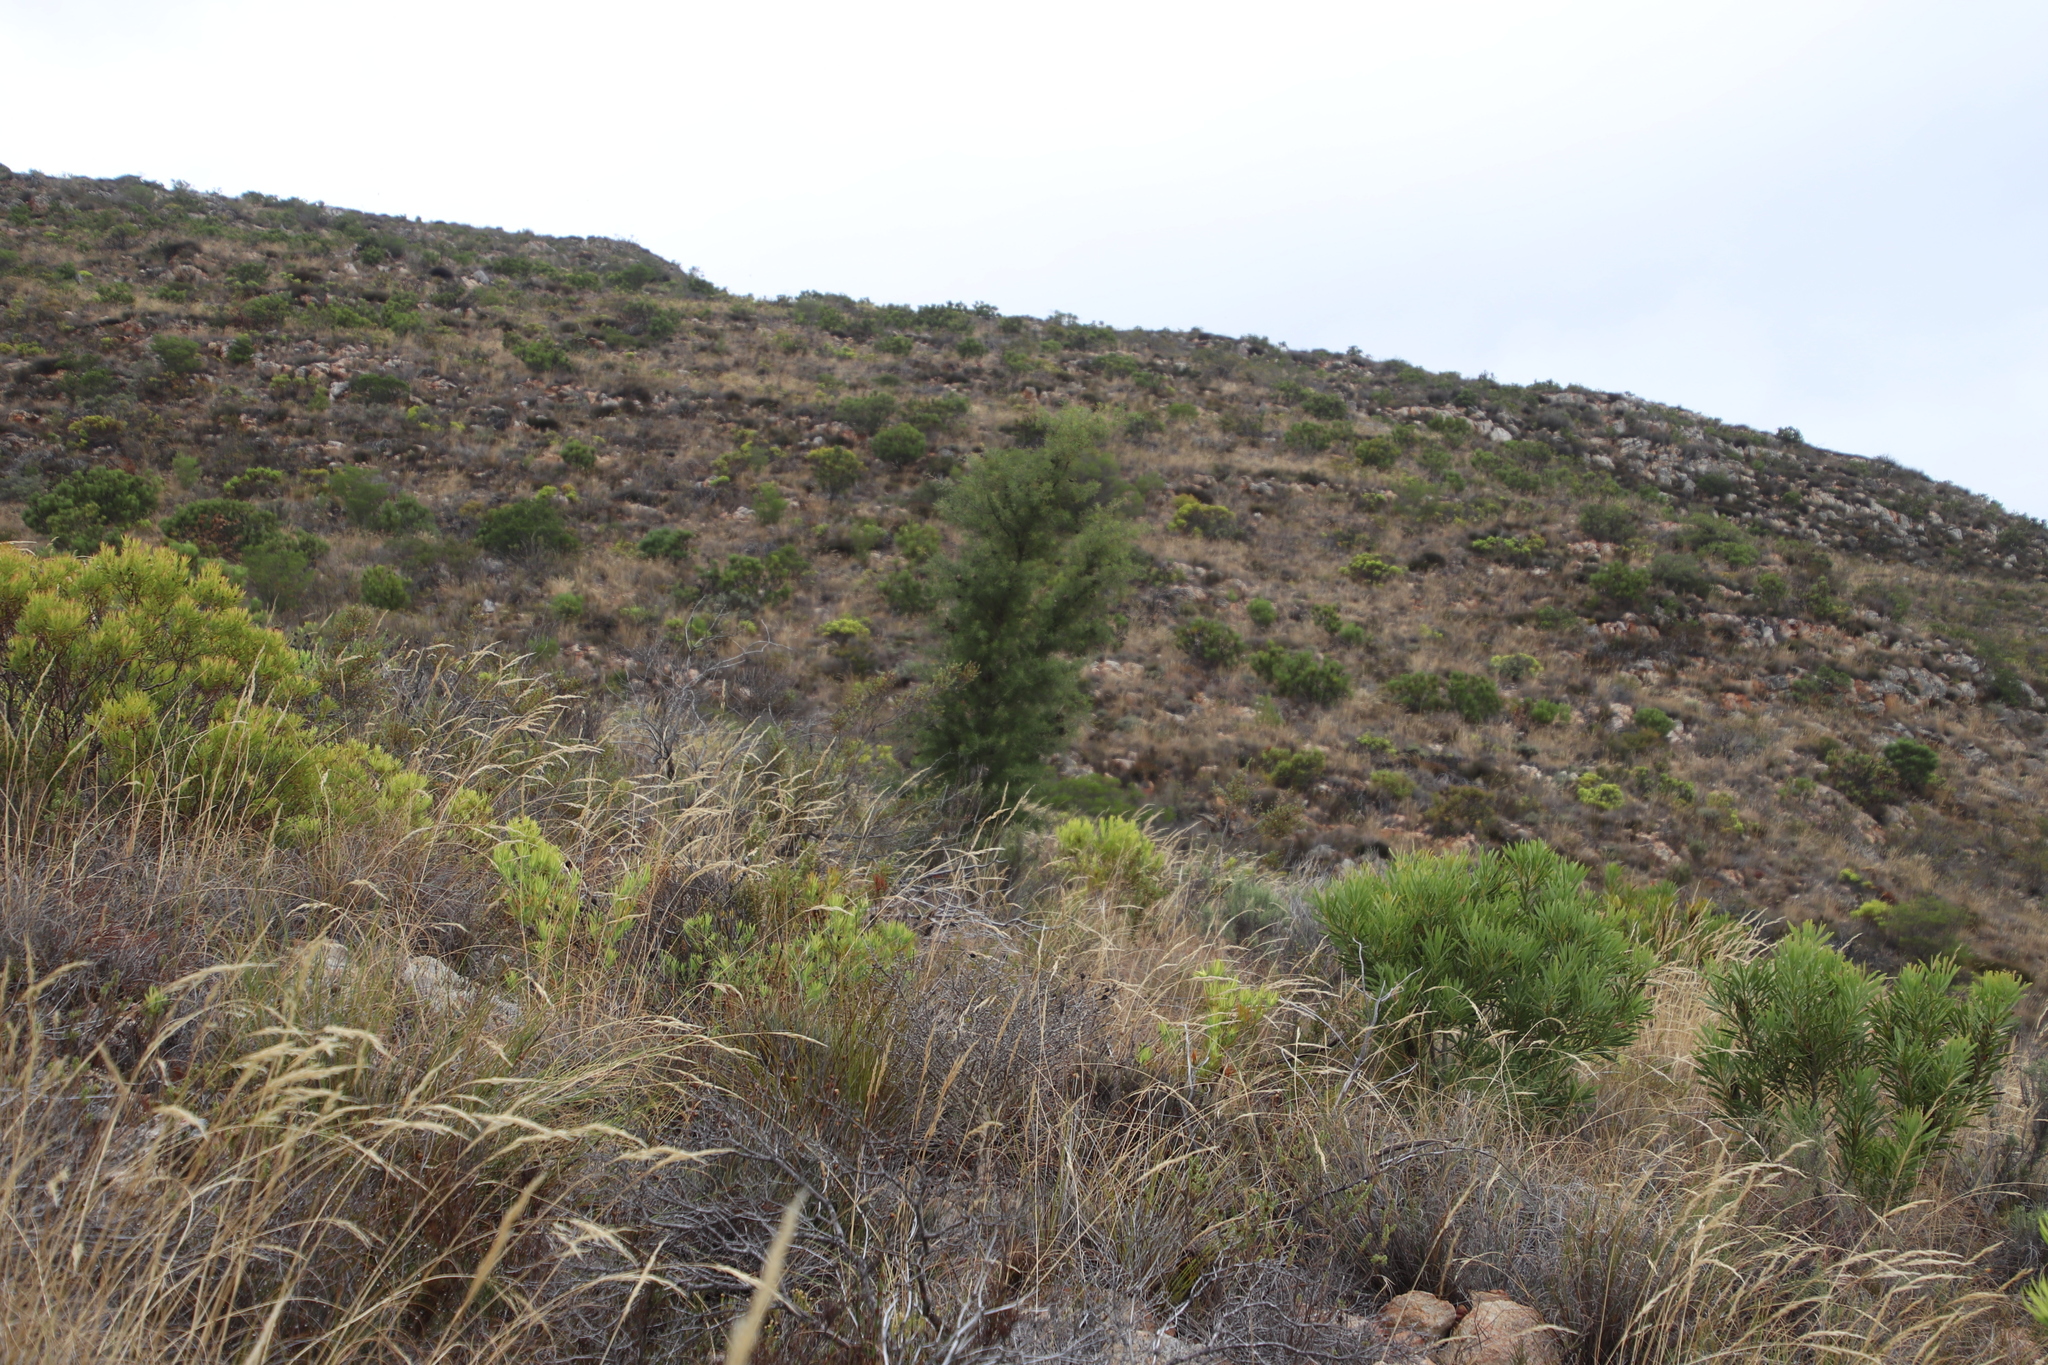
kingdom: Plantae
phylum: Tracheophyta
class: Magnoliopsida
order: Proteales
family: Proteaceae
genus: Hakea
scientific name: Hakea sericea
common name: Needle bush
